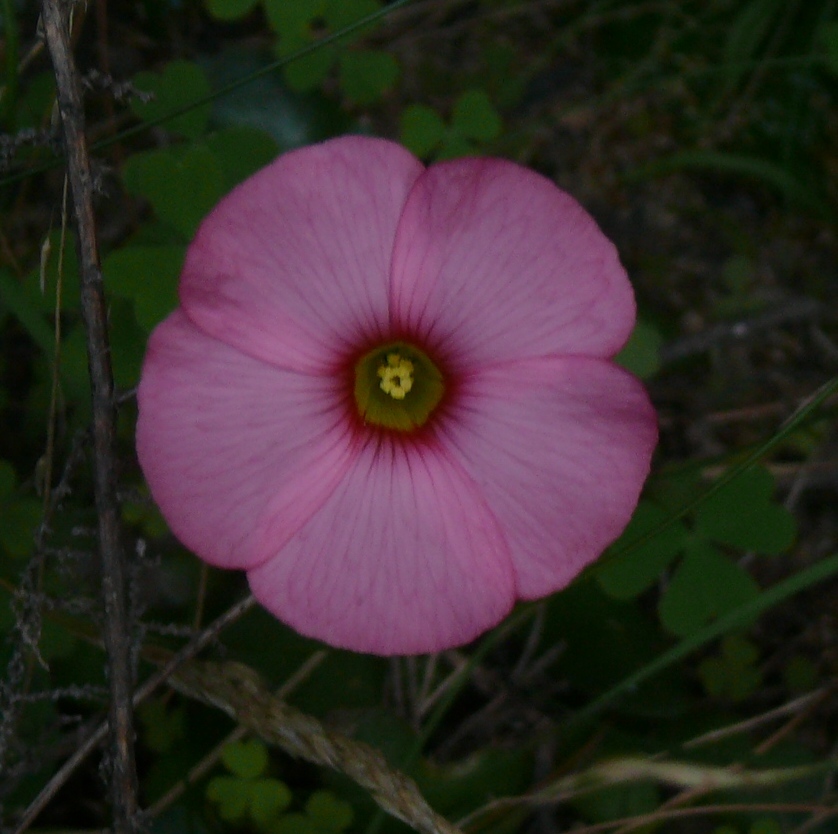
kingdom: Plantae
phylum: Tracheophyta
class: Magnoliopsida
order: Oxalidales
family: Oxalidaceae
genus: Oxalis
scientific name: Oxalis obtusa
